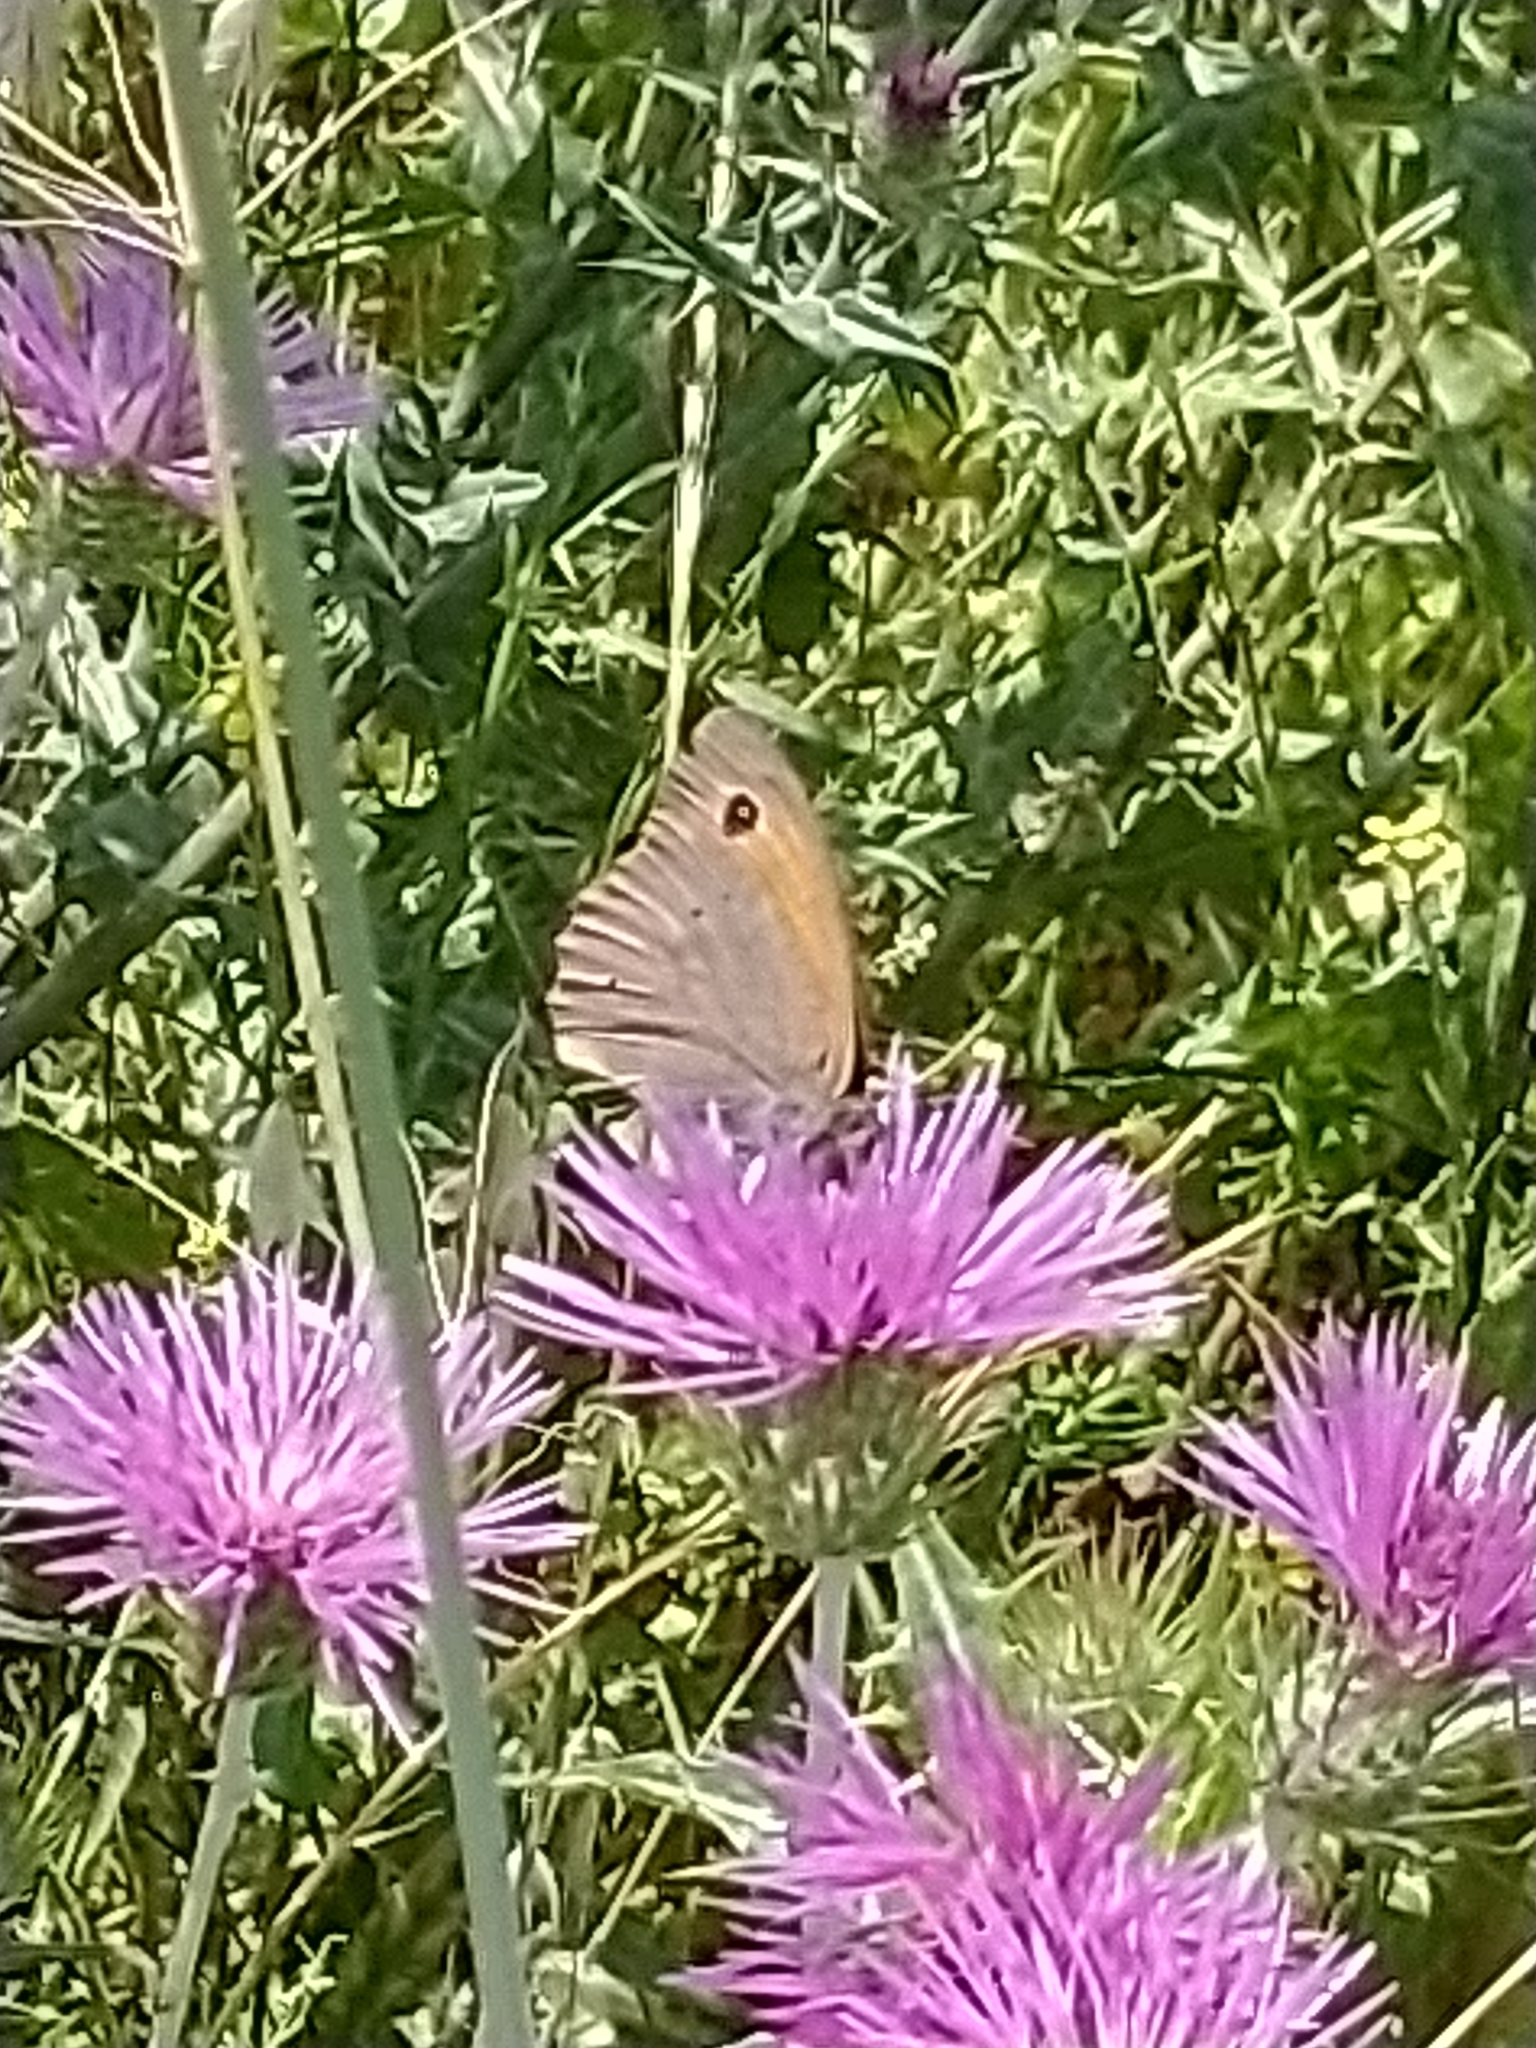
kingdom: Animalia
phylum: Arthropoda
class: Insecta
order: Lepidoptera
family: Nymphalidae
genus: Maniola
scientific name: Maniola jurtina
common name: Meadow brown
